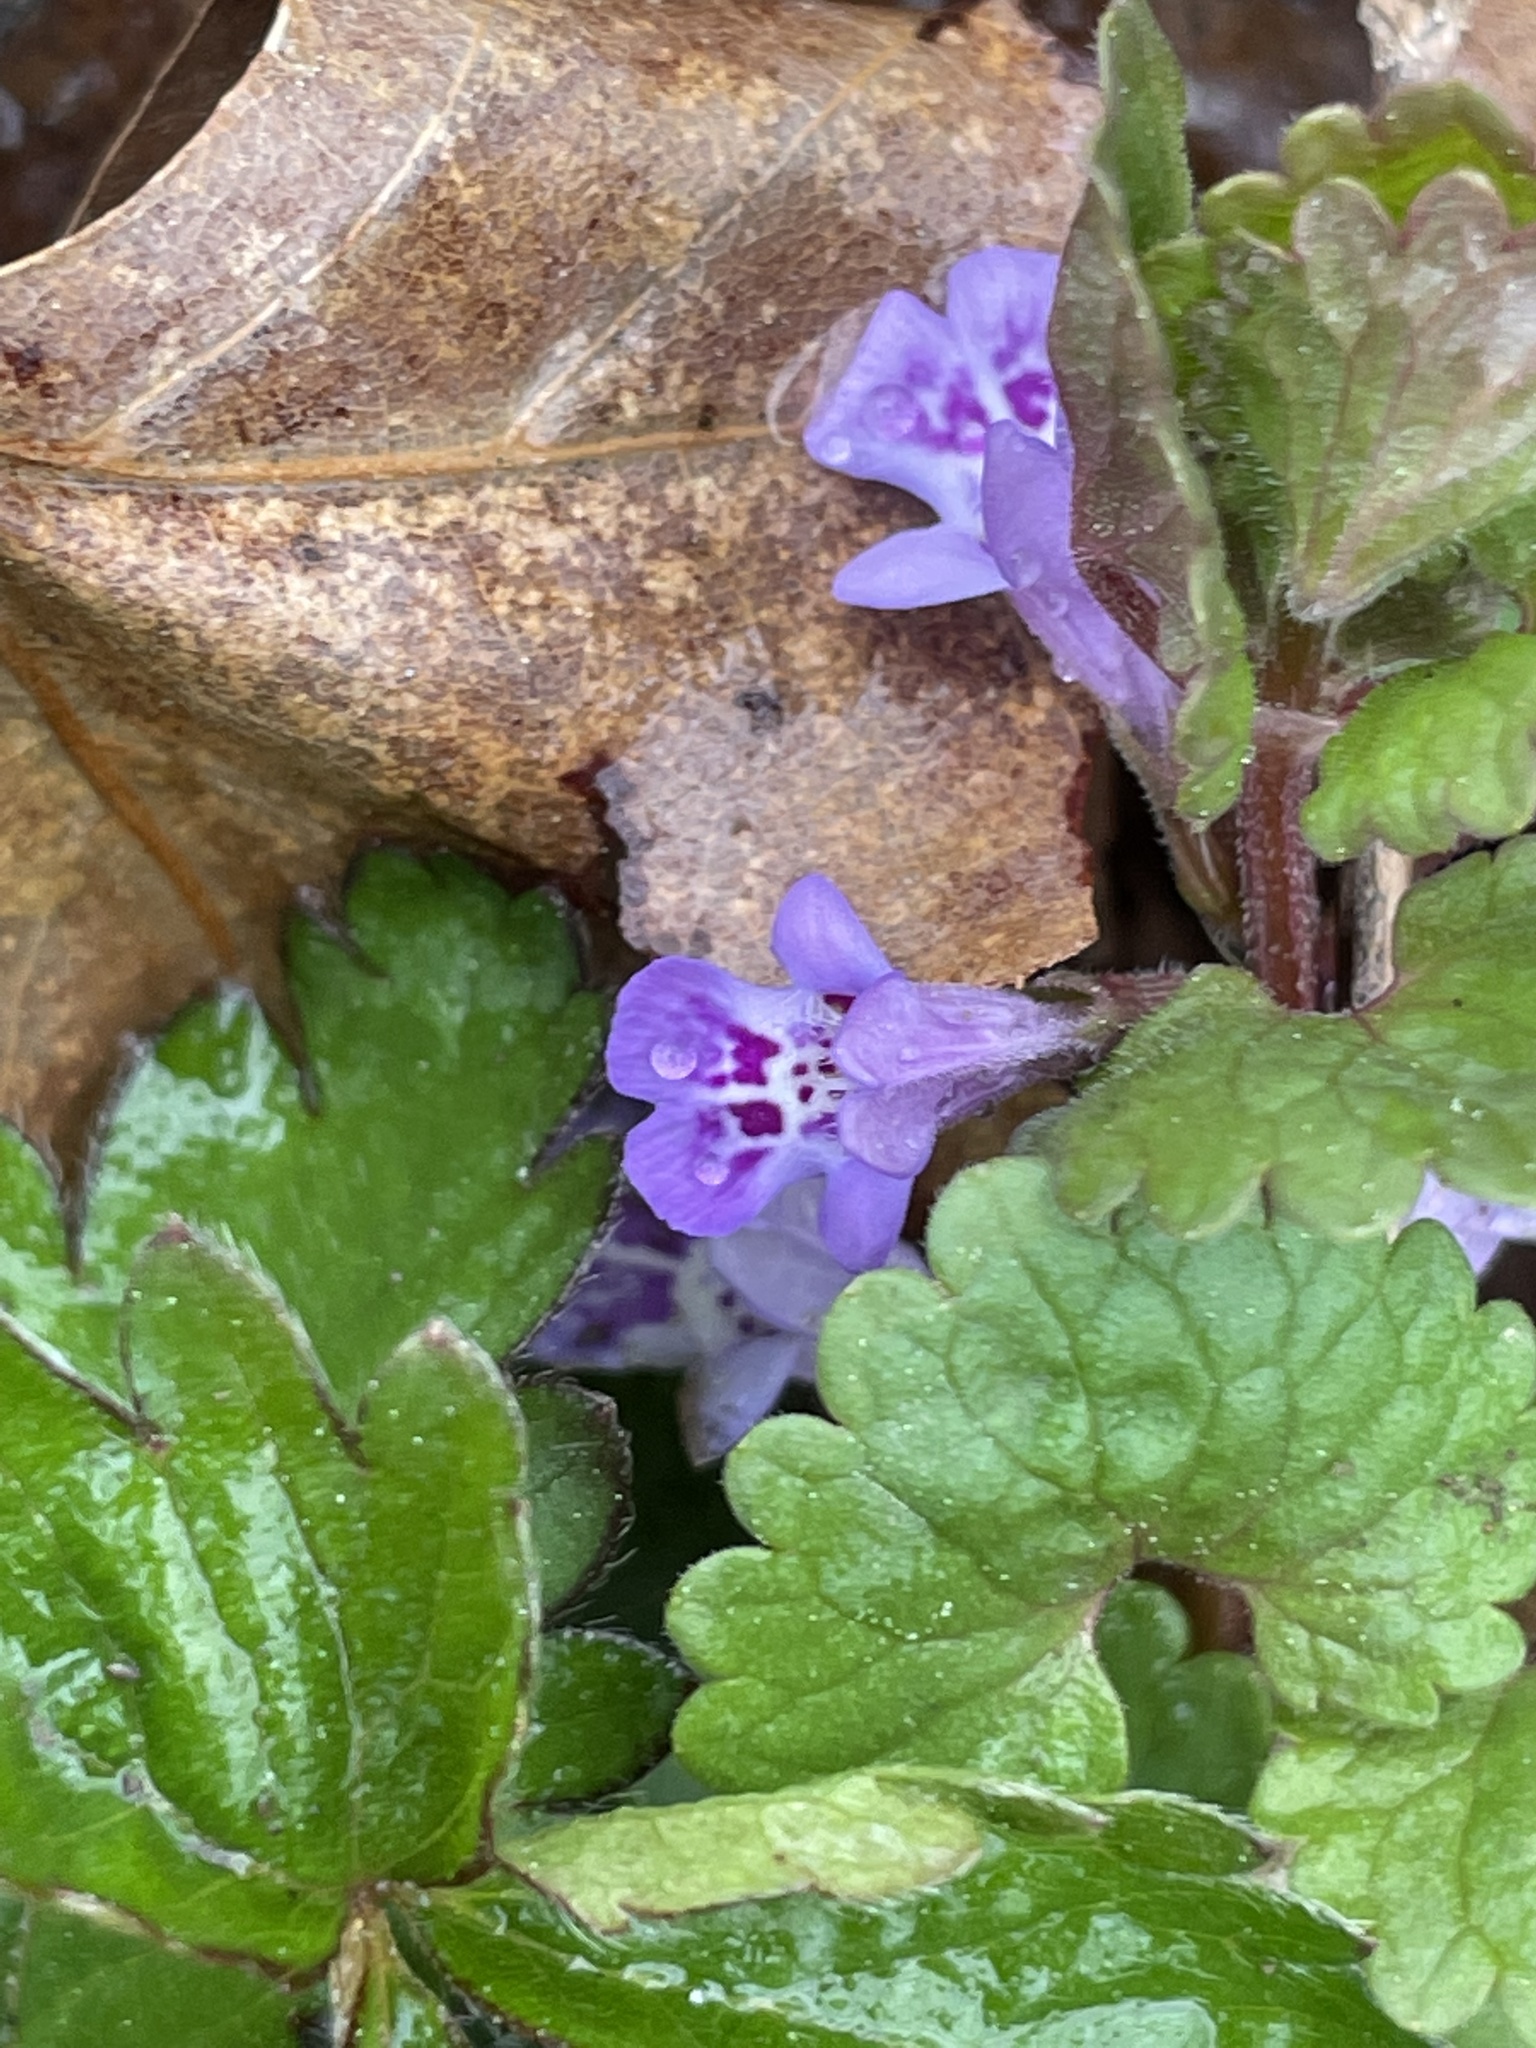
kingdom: Plantae
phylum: Tracheophyta
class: Magnoliopsida
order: Lamiales
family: Lamiaceae
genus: Glechoma
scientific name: Glechoma hederacea
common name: Ground ivy
